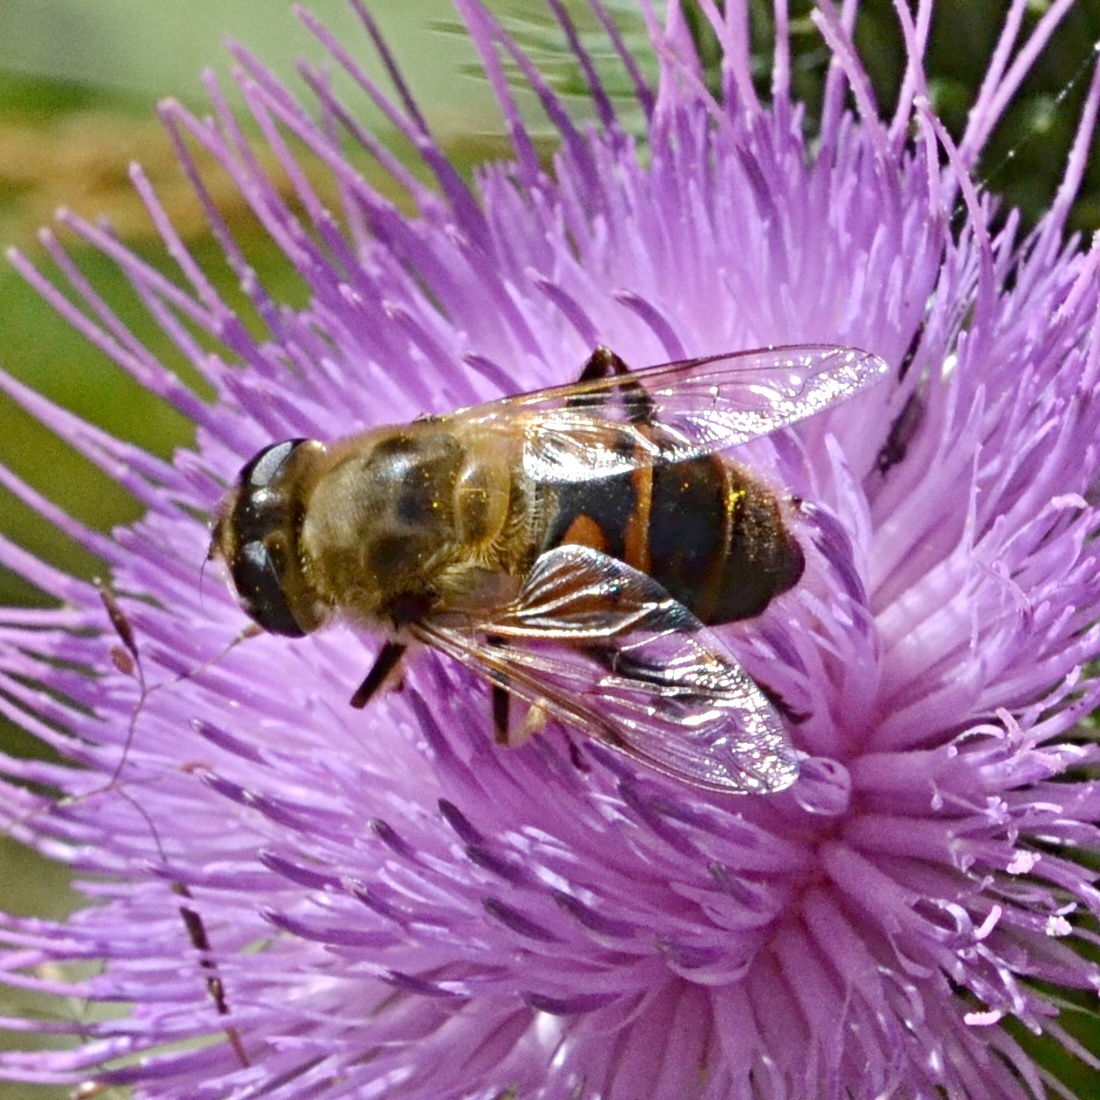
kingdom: Animalia
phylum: Arthropoda
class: Insecta
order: Diptera
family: Syrphidae
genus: Eristalis
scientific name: Eristalis tenax
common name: Drone fly
